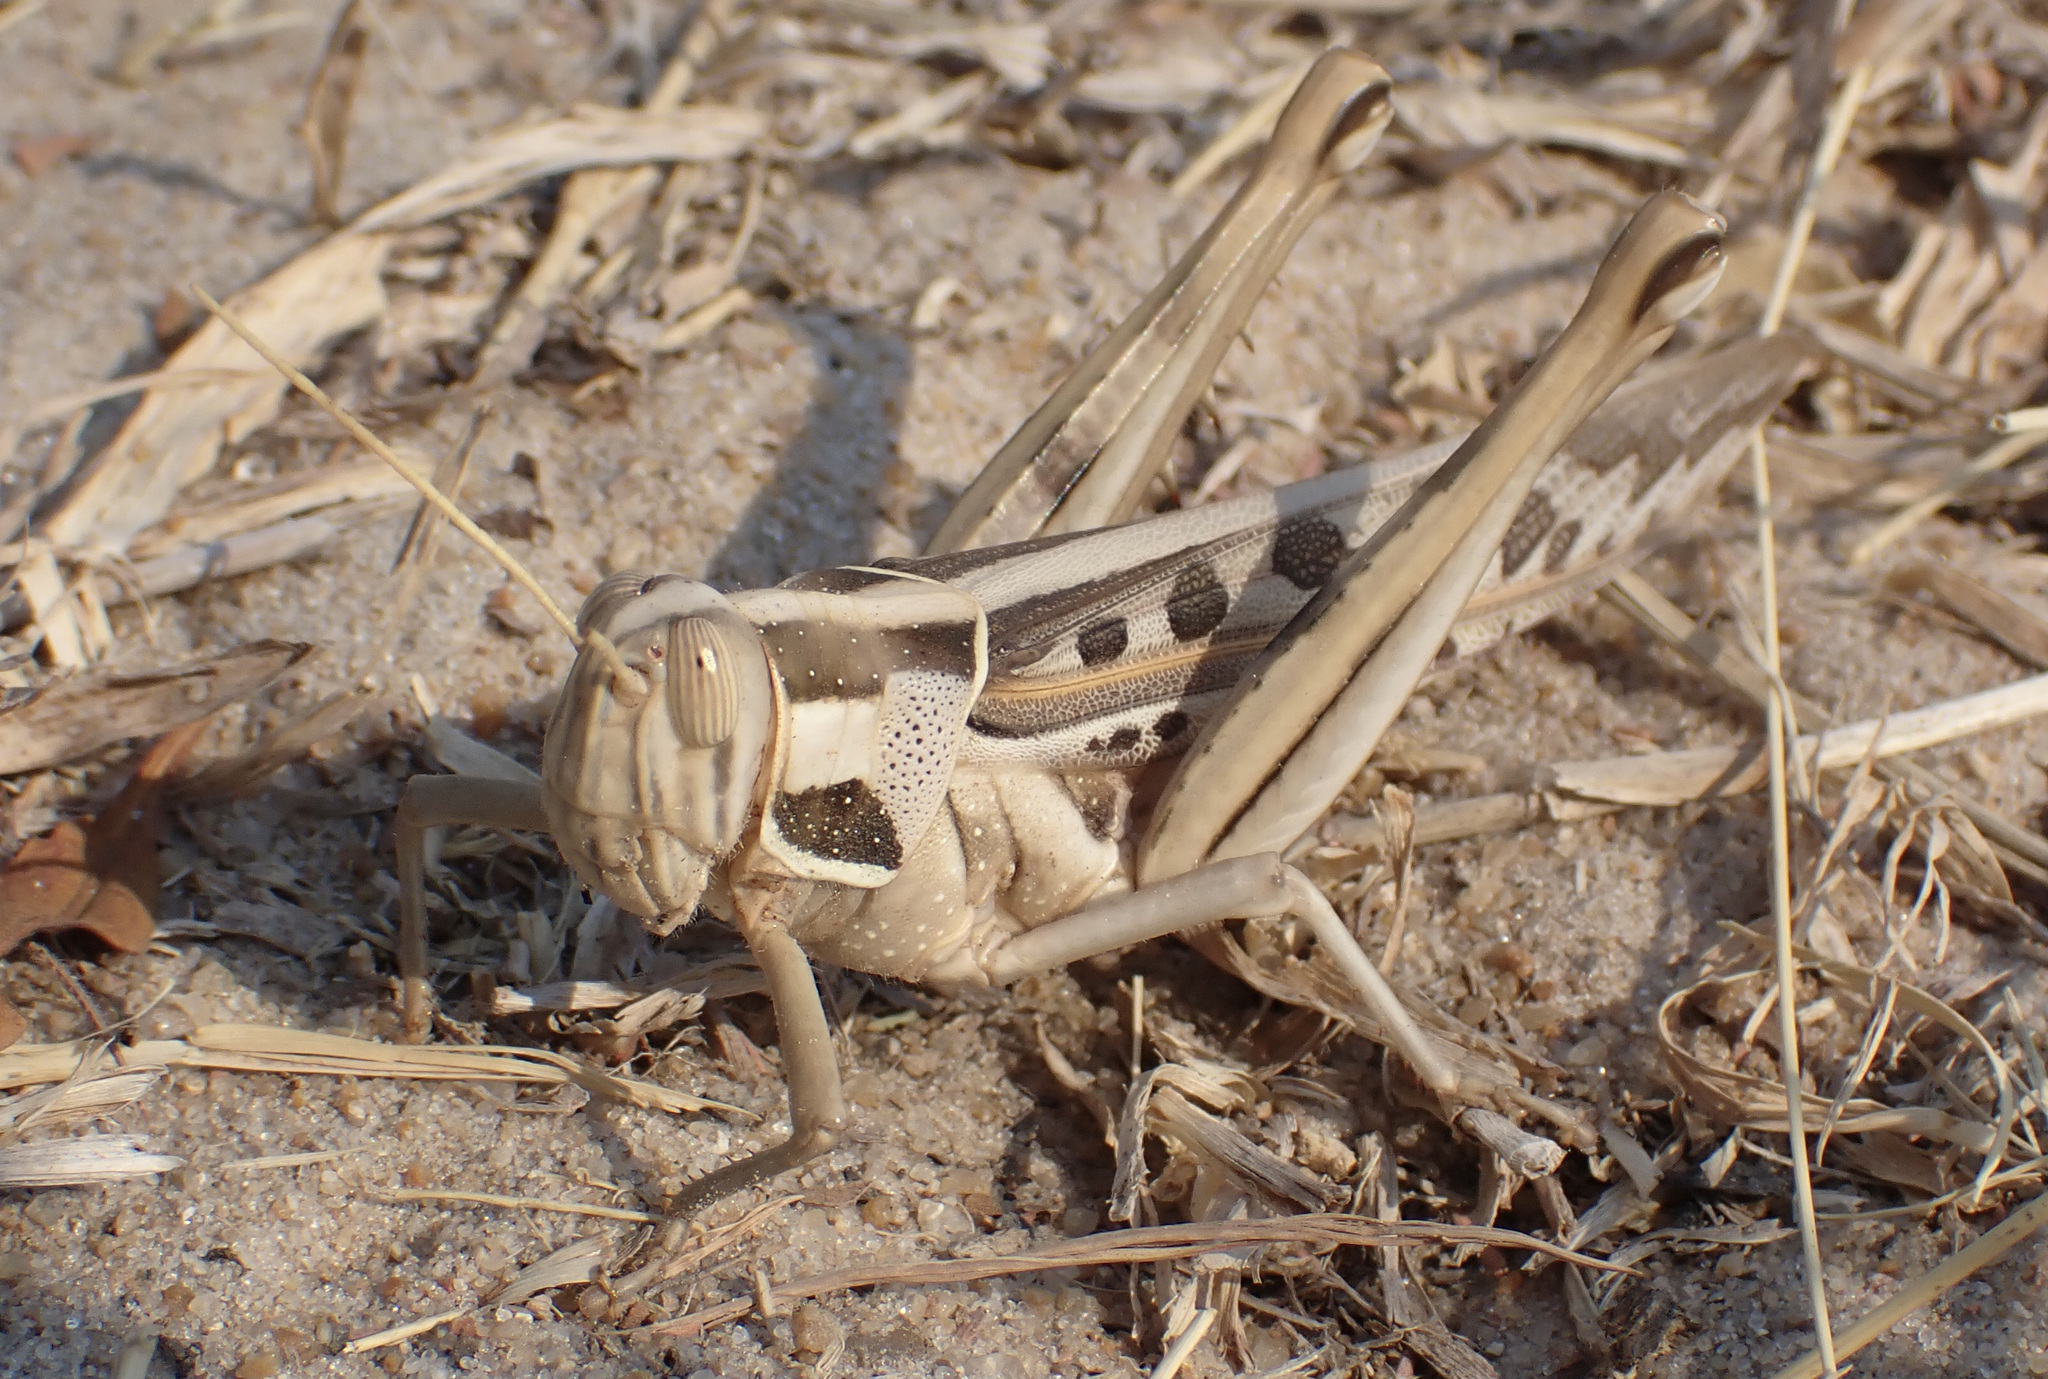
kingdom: Animalia
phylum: Arthropoda
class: Insecta
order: Orthoptera
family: Acrididae
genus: Cyrtacanthacris
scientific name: Cyrtacanthacris tatarica
